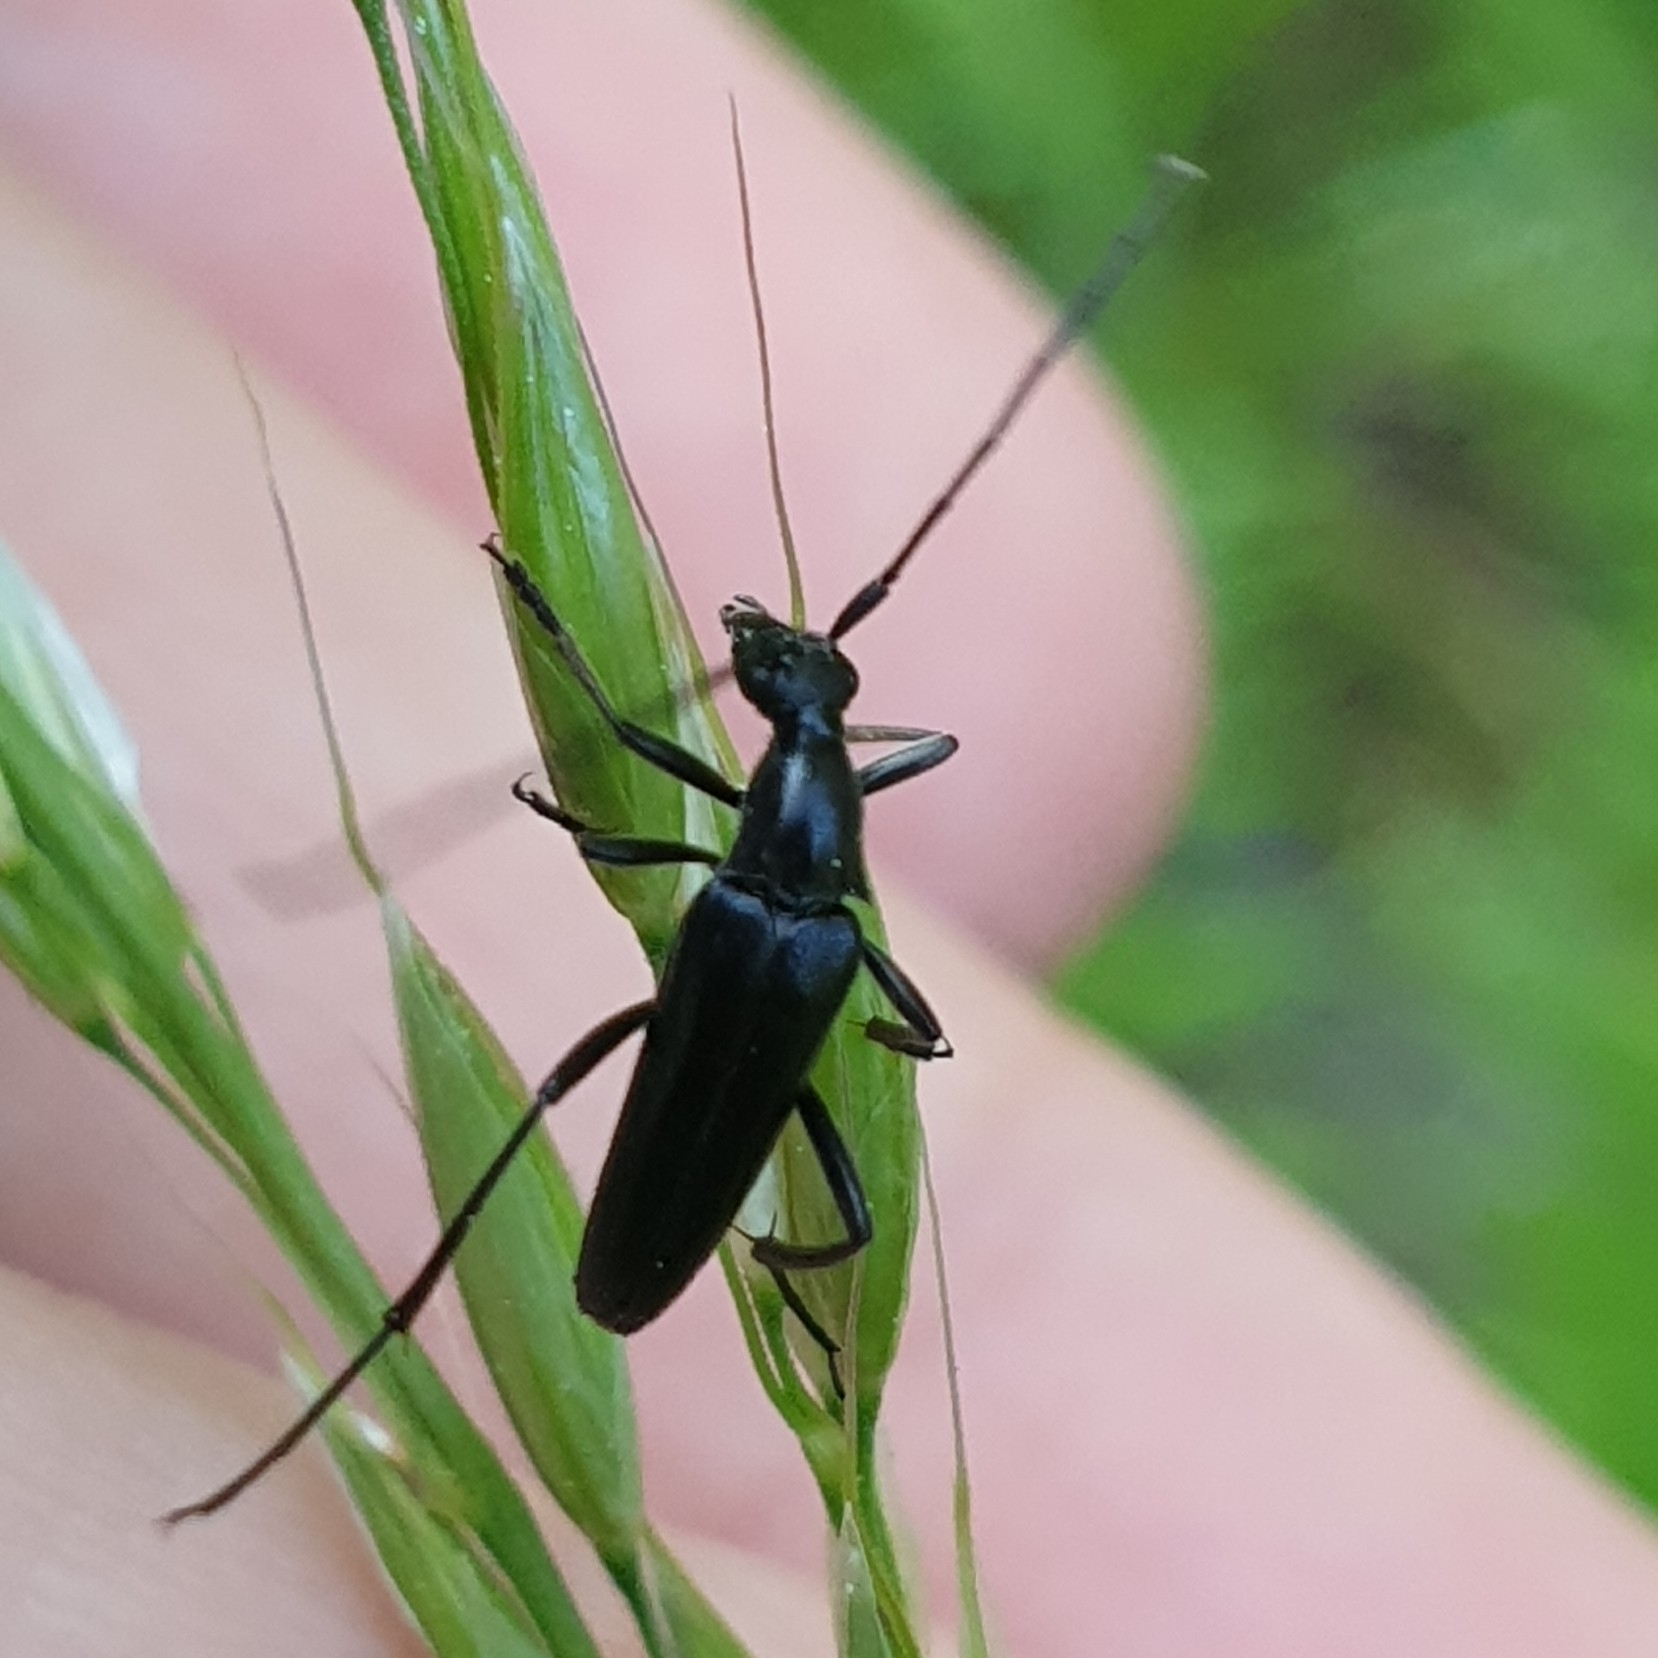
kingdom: Animalia
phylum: Arthropoda
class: Insecta
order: Coleoptera
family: Cerambycidae
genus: Stenurella
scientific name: Stenurella nigra
